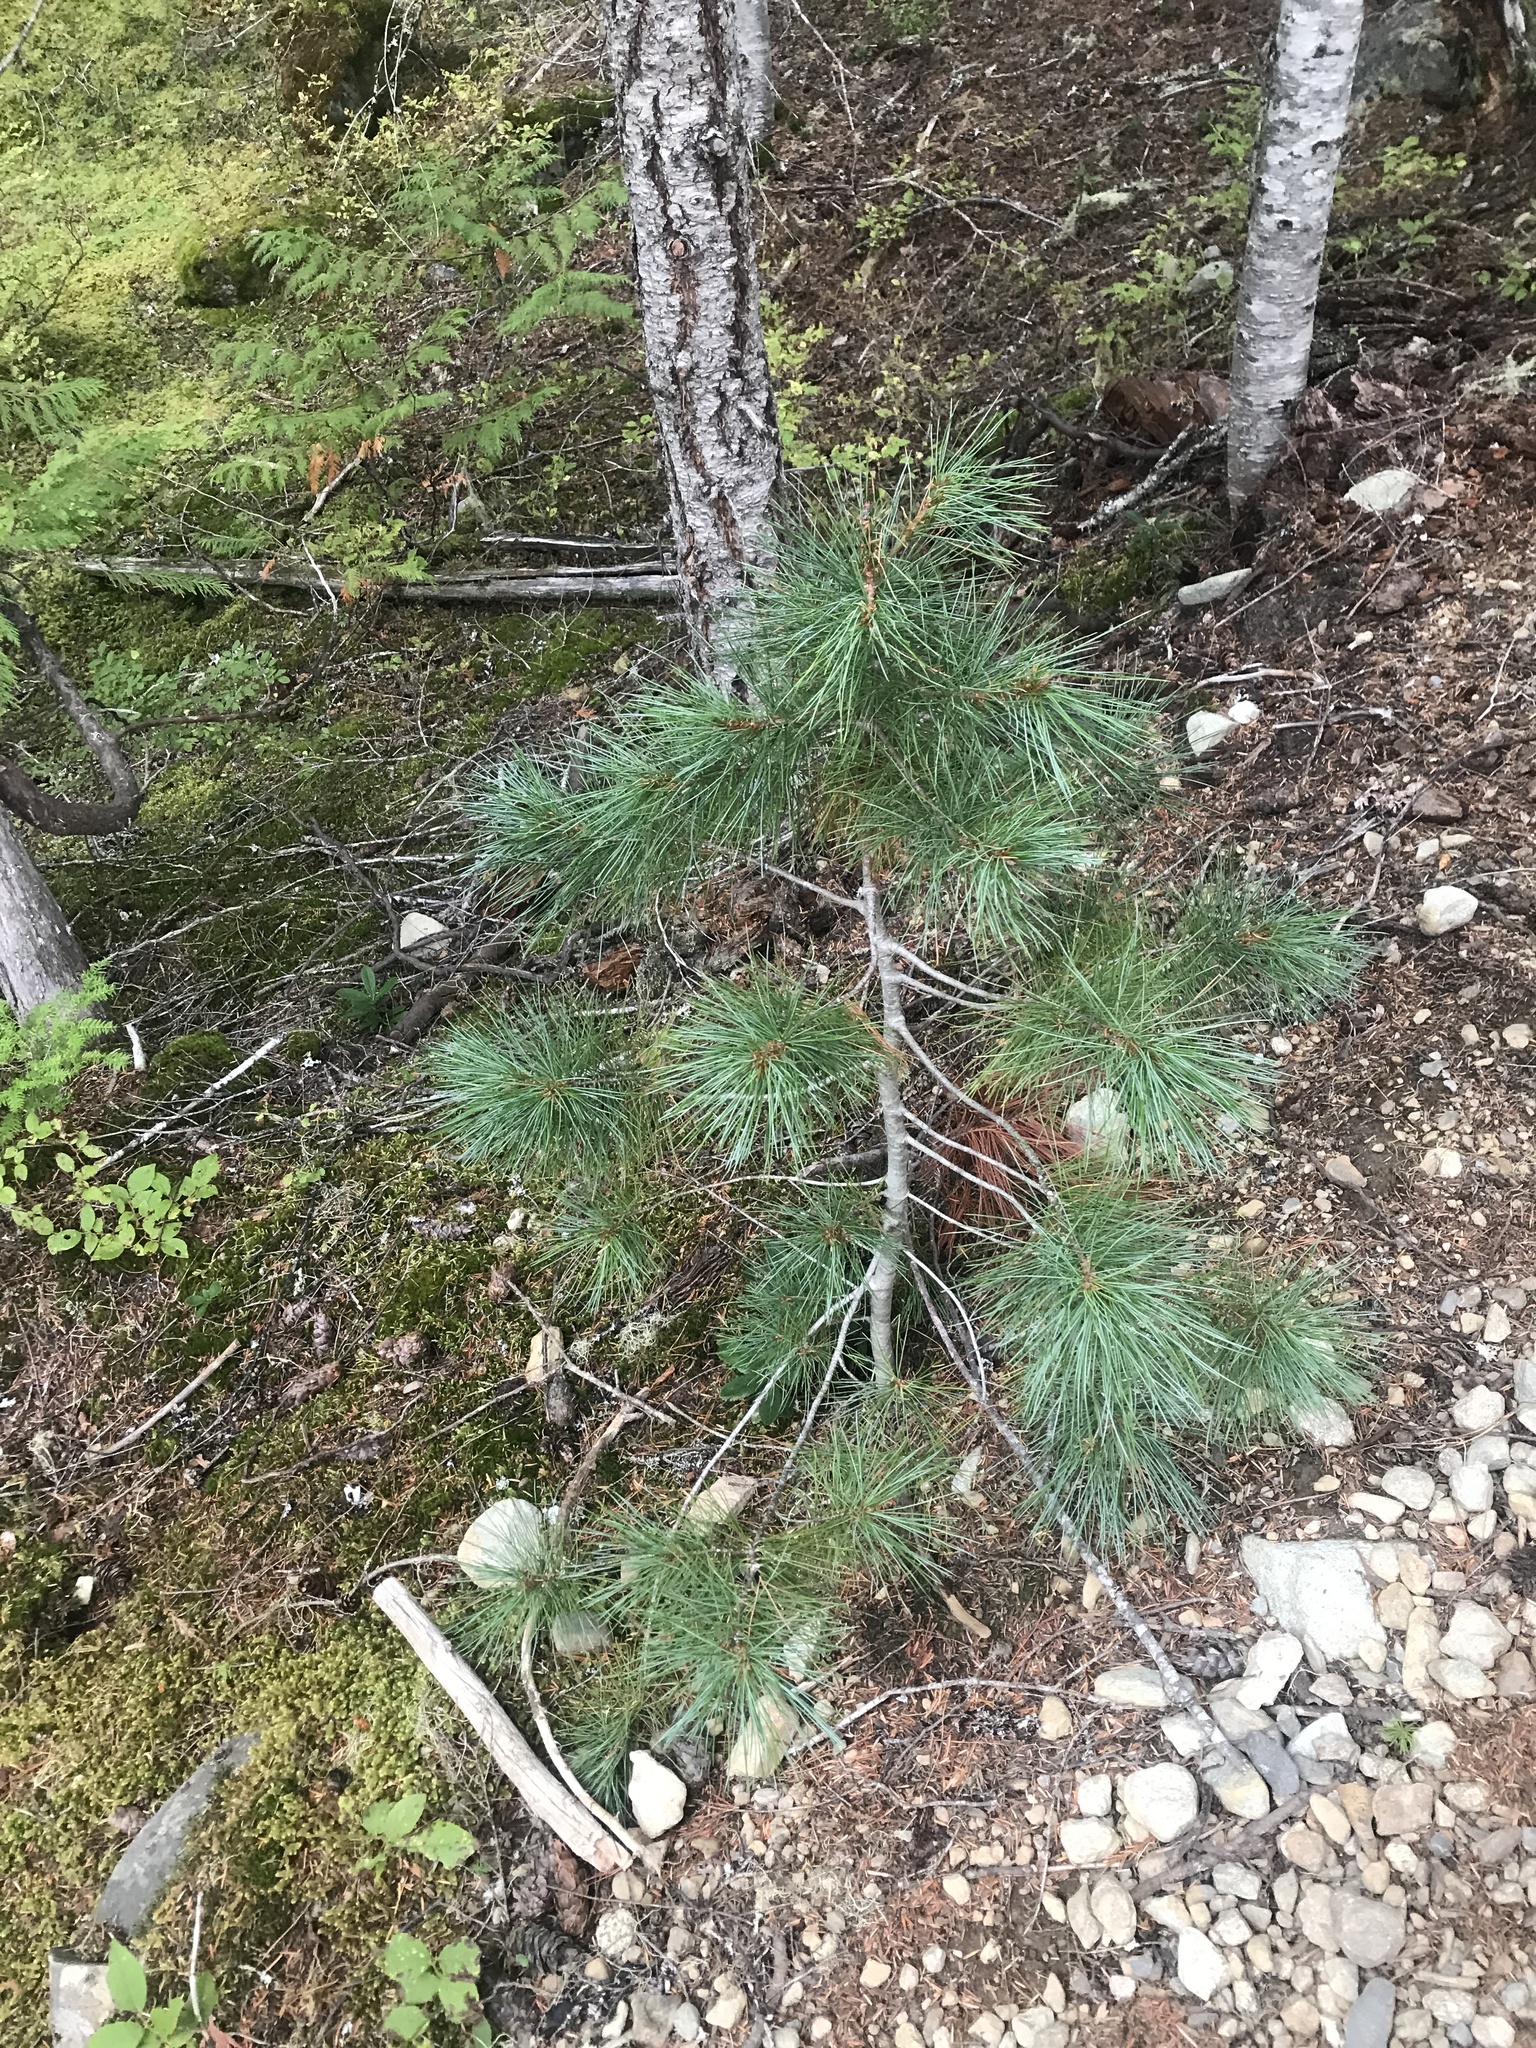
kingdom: Plantae
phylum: Tracheophyta
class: Pinopsida
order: Pinales
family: Pinaceae
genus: Pinus
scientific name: Pinus monticola
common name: Western white pine
